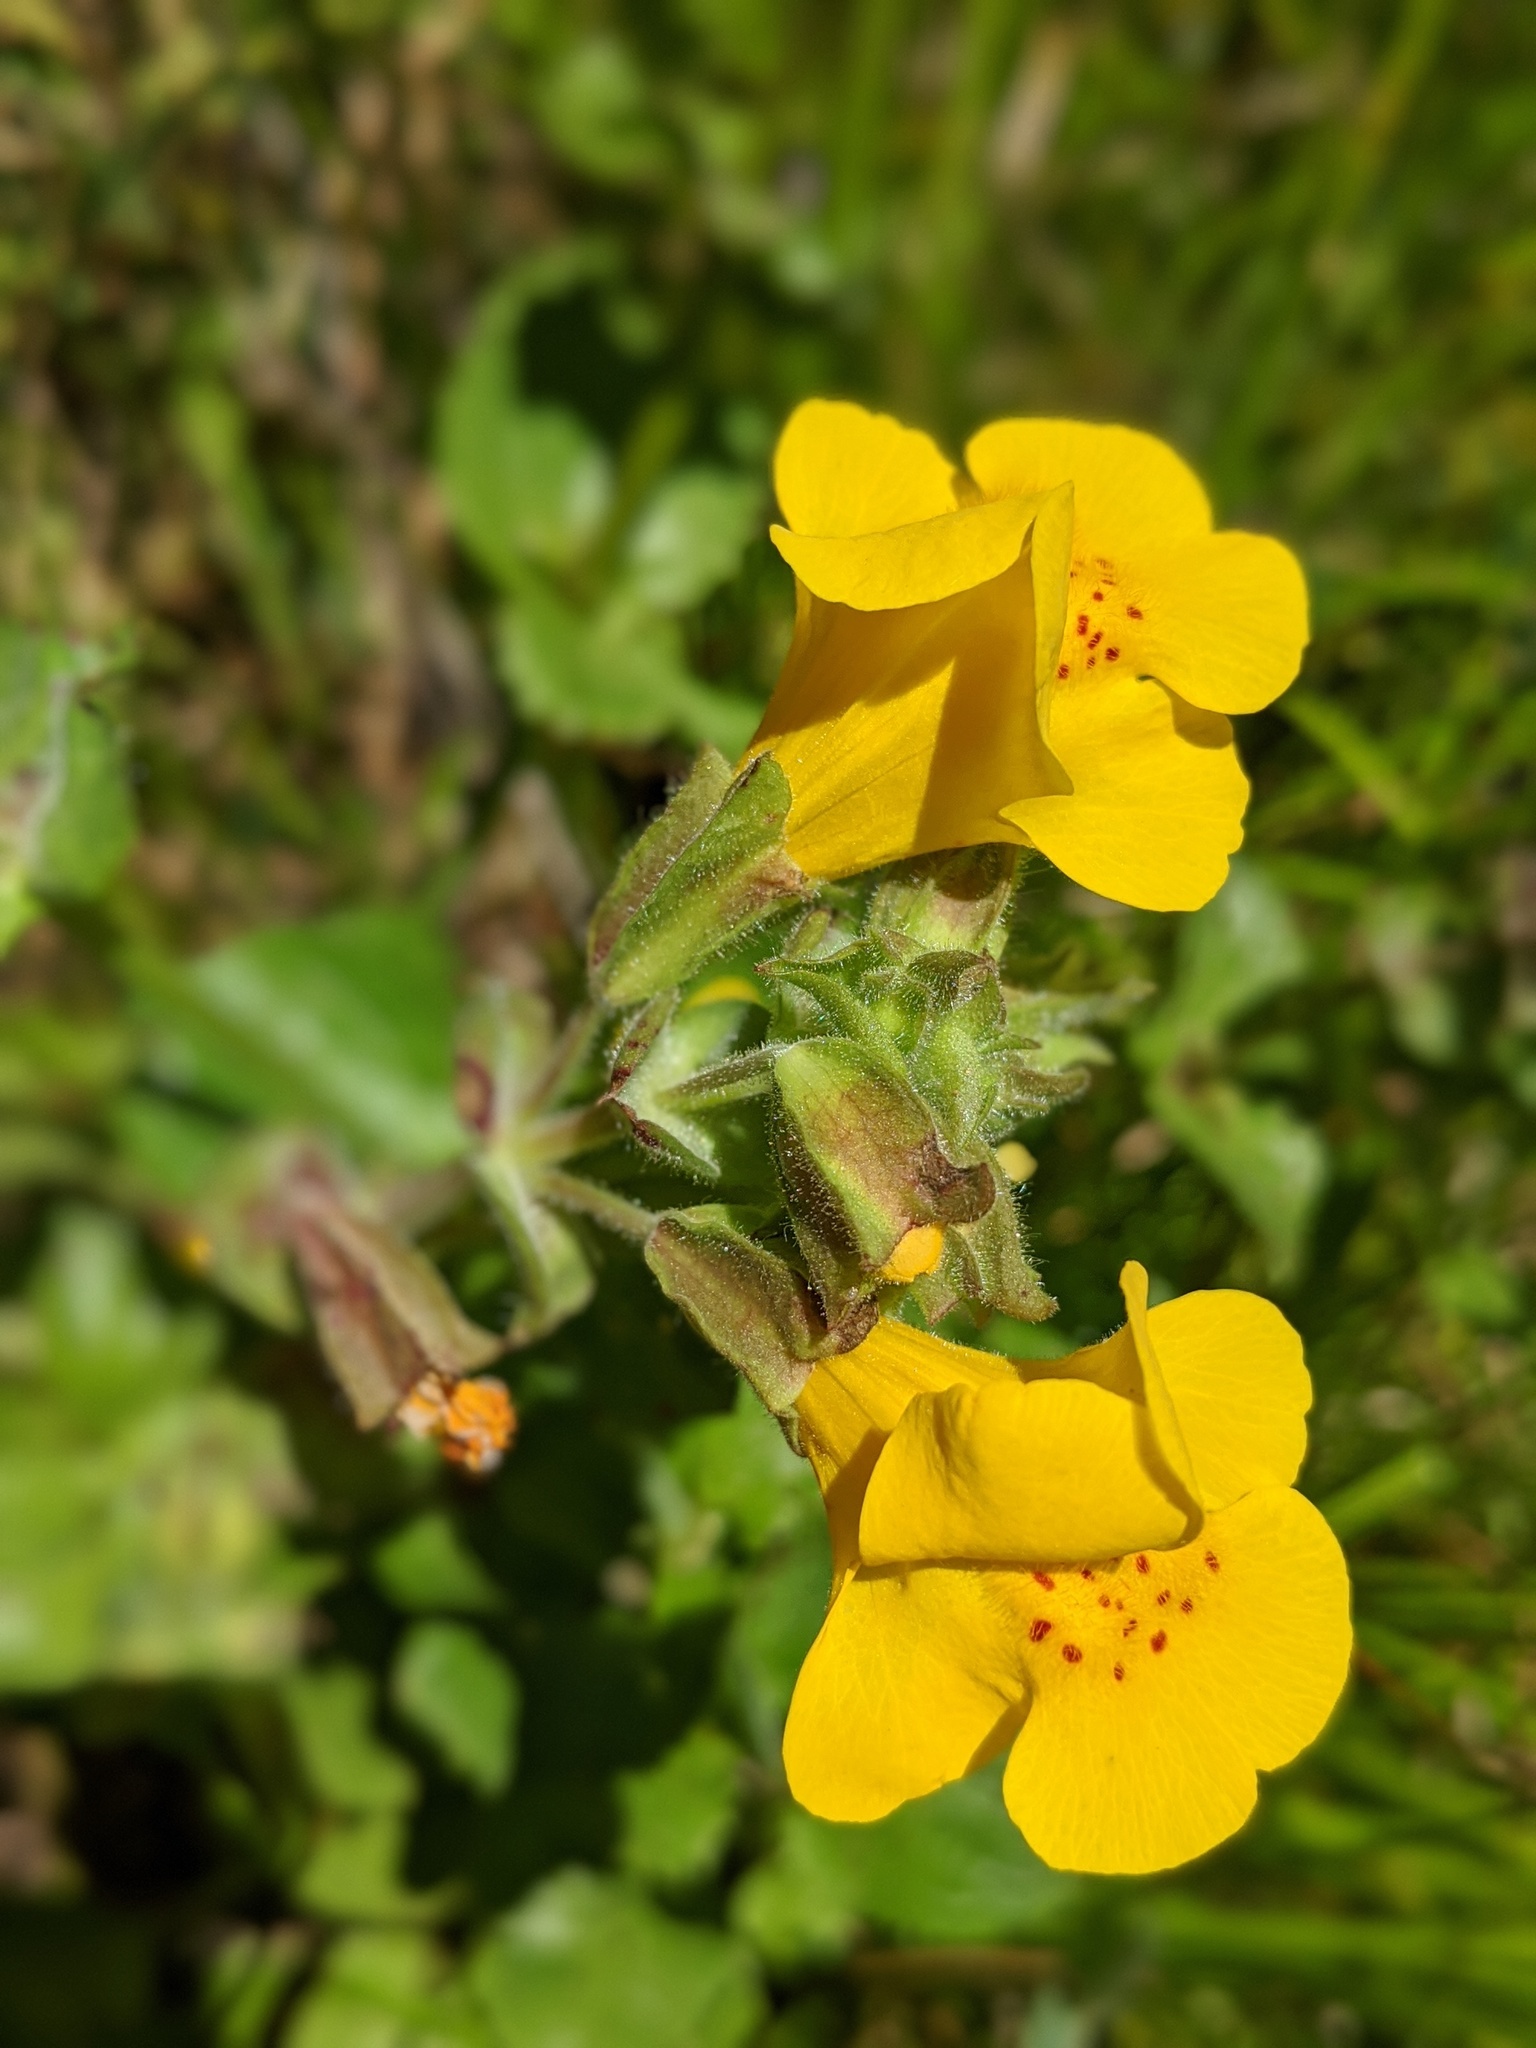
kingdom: Plantae
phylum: Tracheophyta
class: Magnoliopsida
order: Lamiales
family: Phrymaceae
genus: Erythranthe
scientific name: Erythranthe guttata
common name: Monkeyflower
